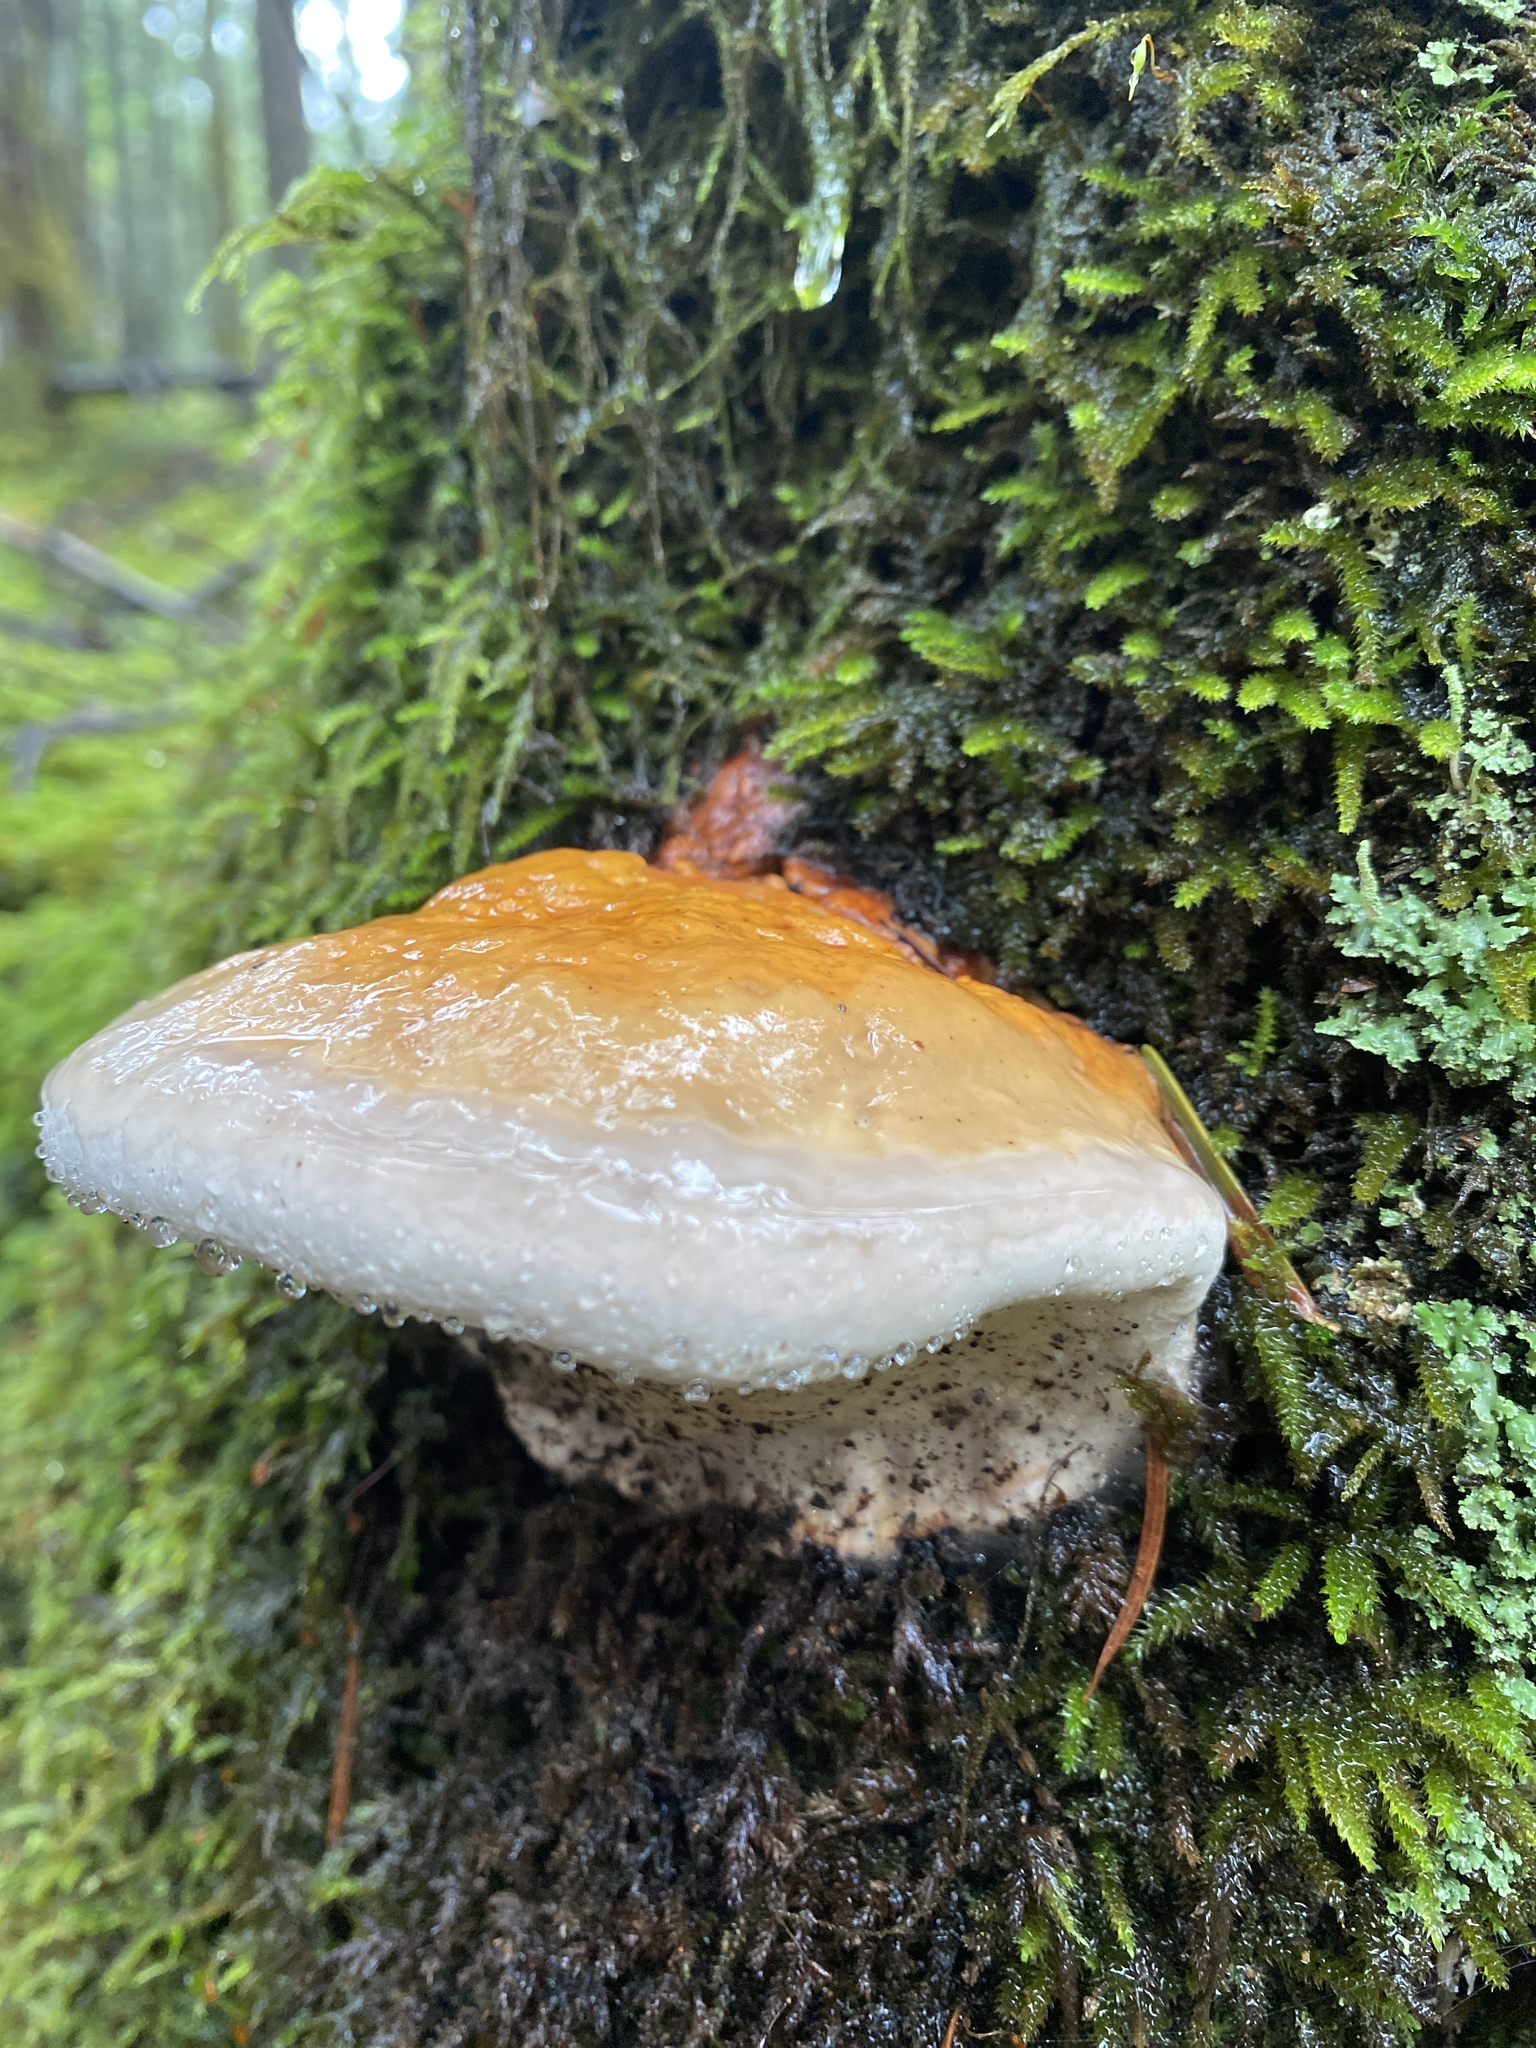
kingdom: Fungi
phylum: Basidiomycota
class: Agaricomycetes
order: Polyporales
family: Fomitopsidaceae
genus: Fomitopsis
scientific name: Fomitopsis mounceae
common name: Northern red belt
